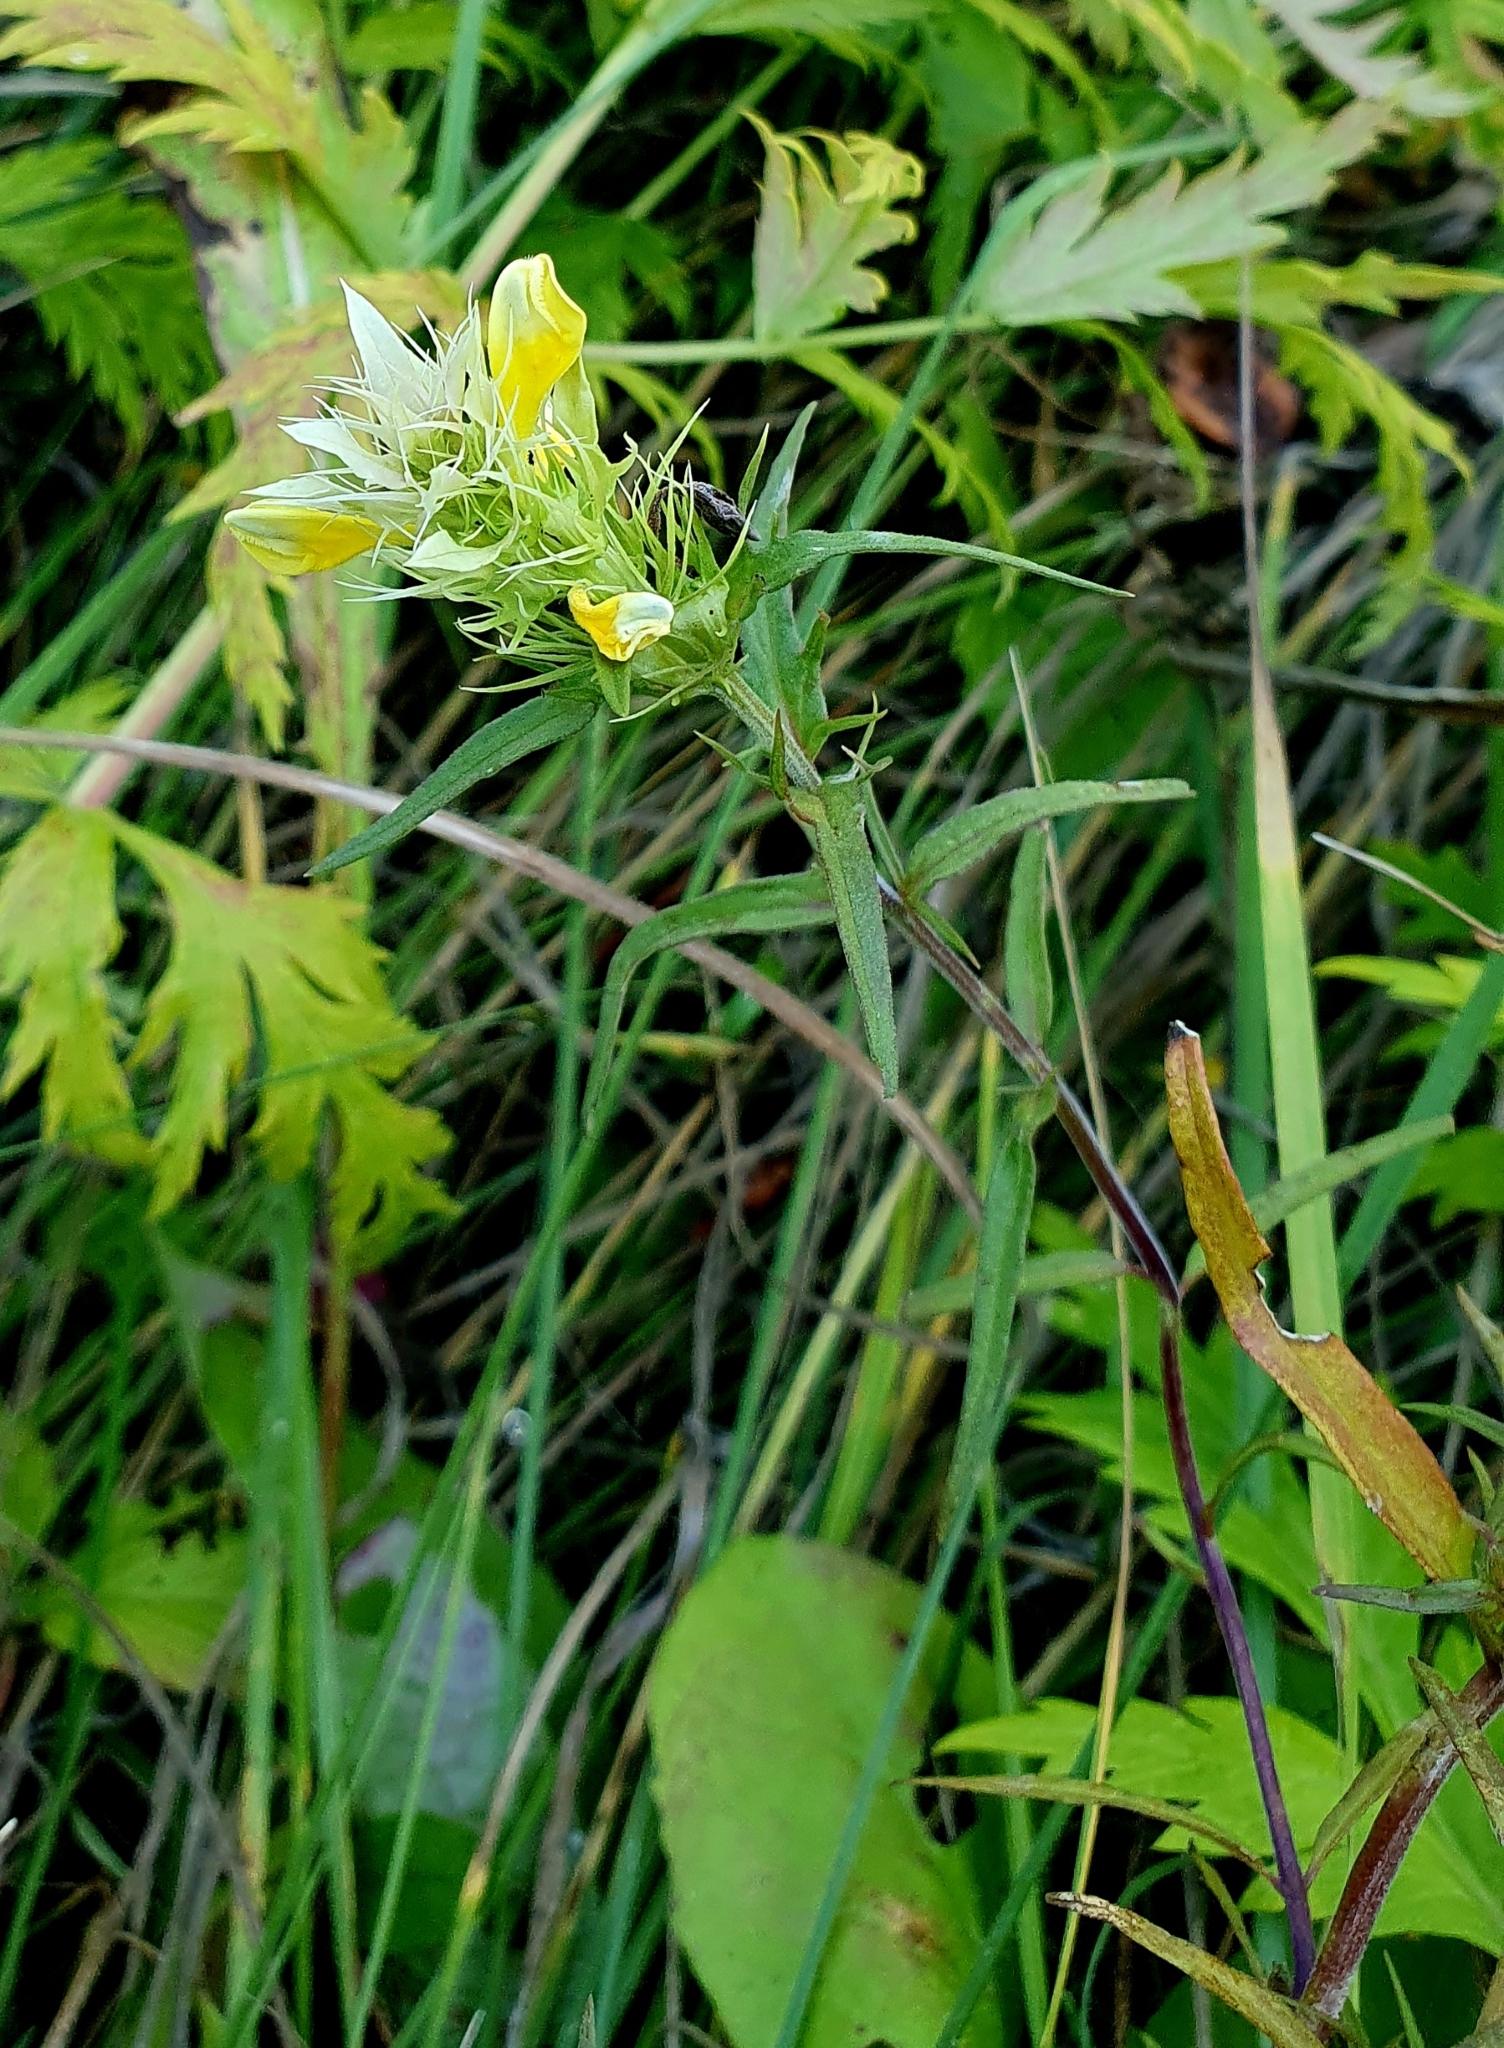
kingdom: Plantae
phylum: Tracheophyta
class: Magnoliopsida
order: Lamiales
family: Orobanchaceae
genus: Melampyrum
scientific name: Melampyrum arvense
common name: Field cow-wheat
